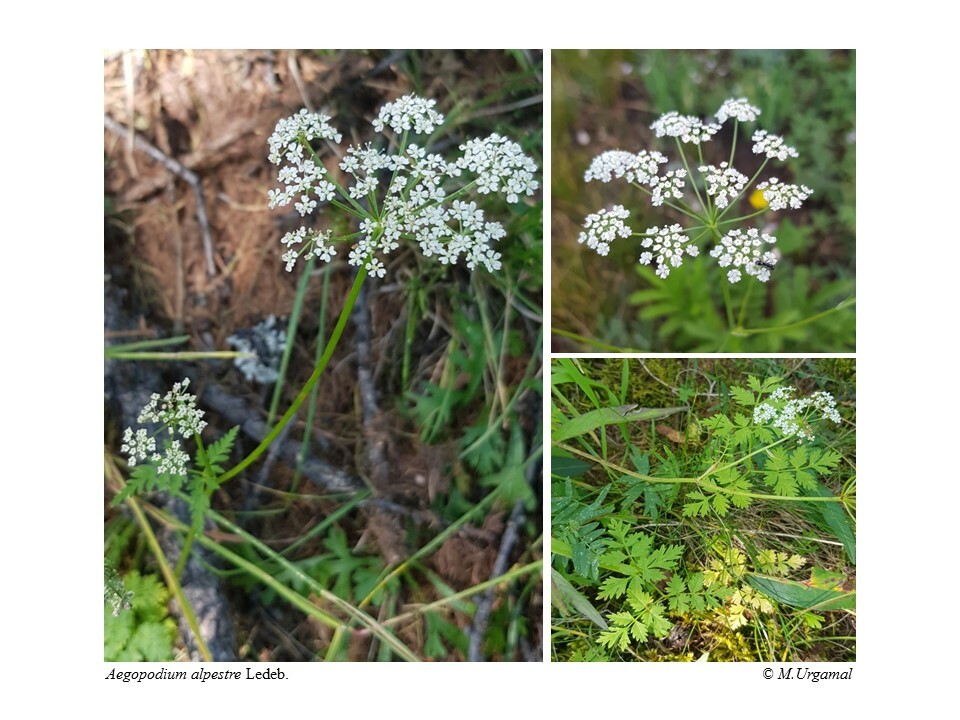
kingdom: Plantae
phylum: Tracheophyta
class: Magnoliopsida
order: Apiales
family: Apiaceae
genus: Aegopodium
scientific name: Aegopodium alpestre
